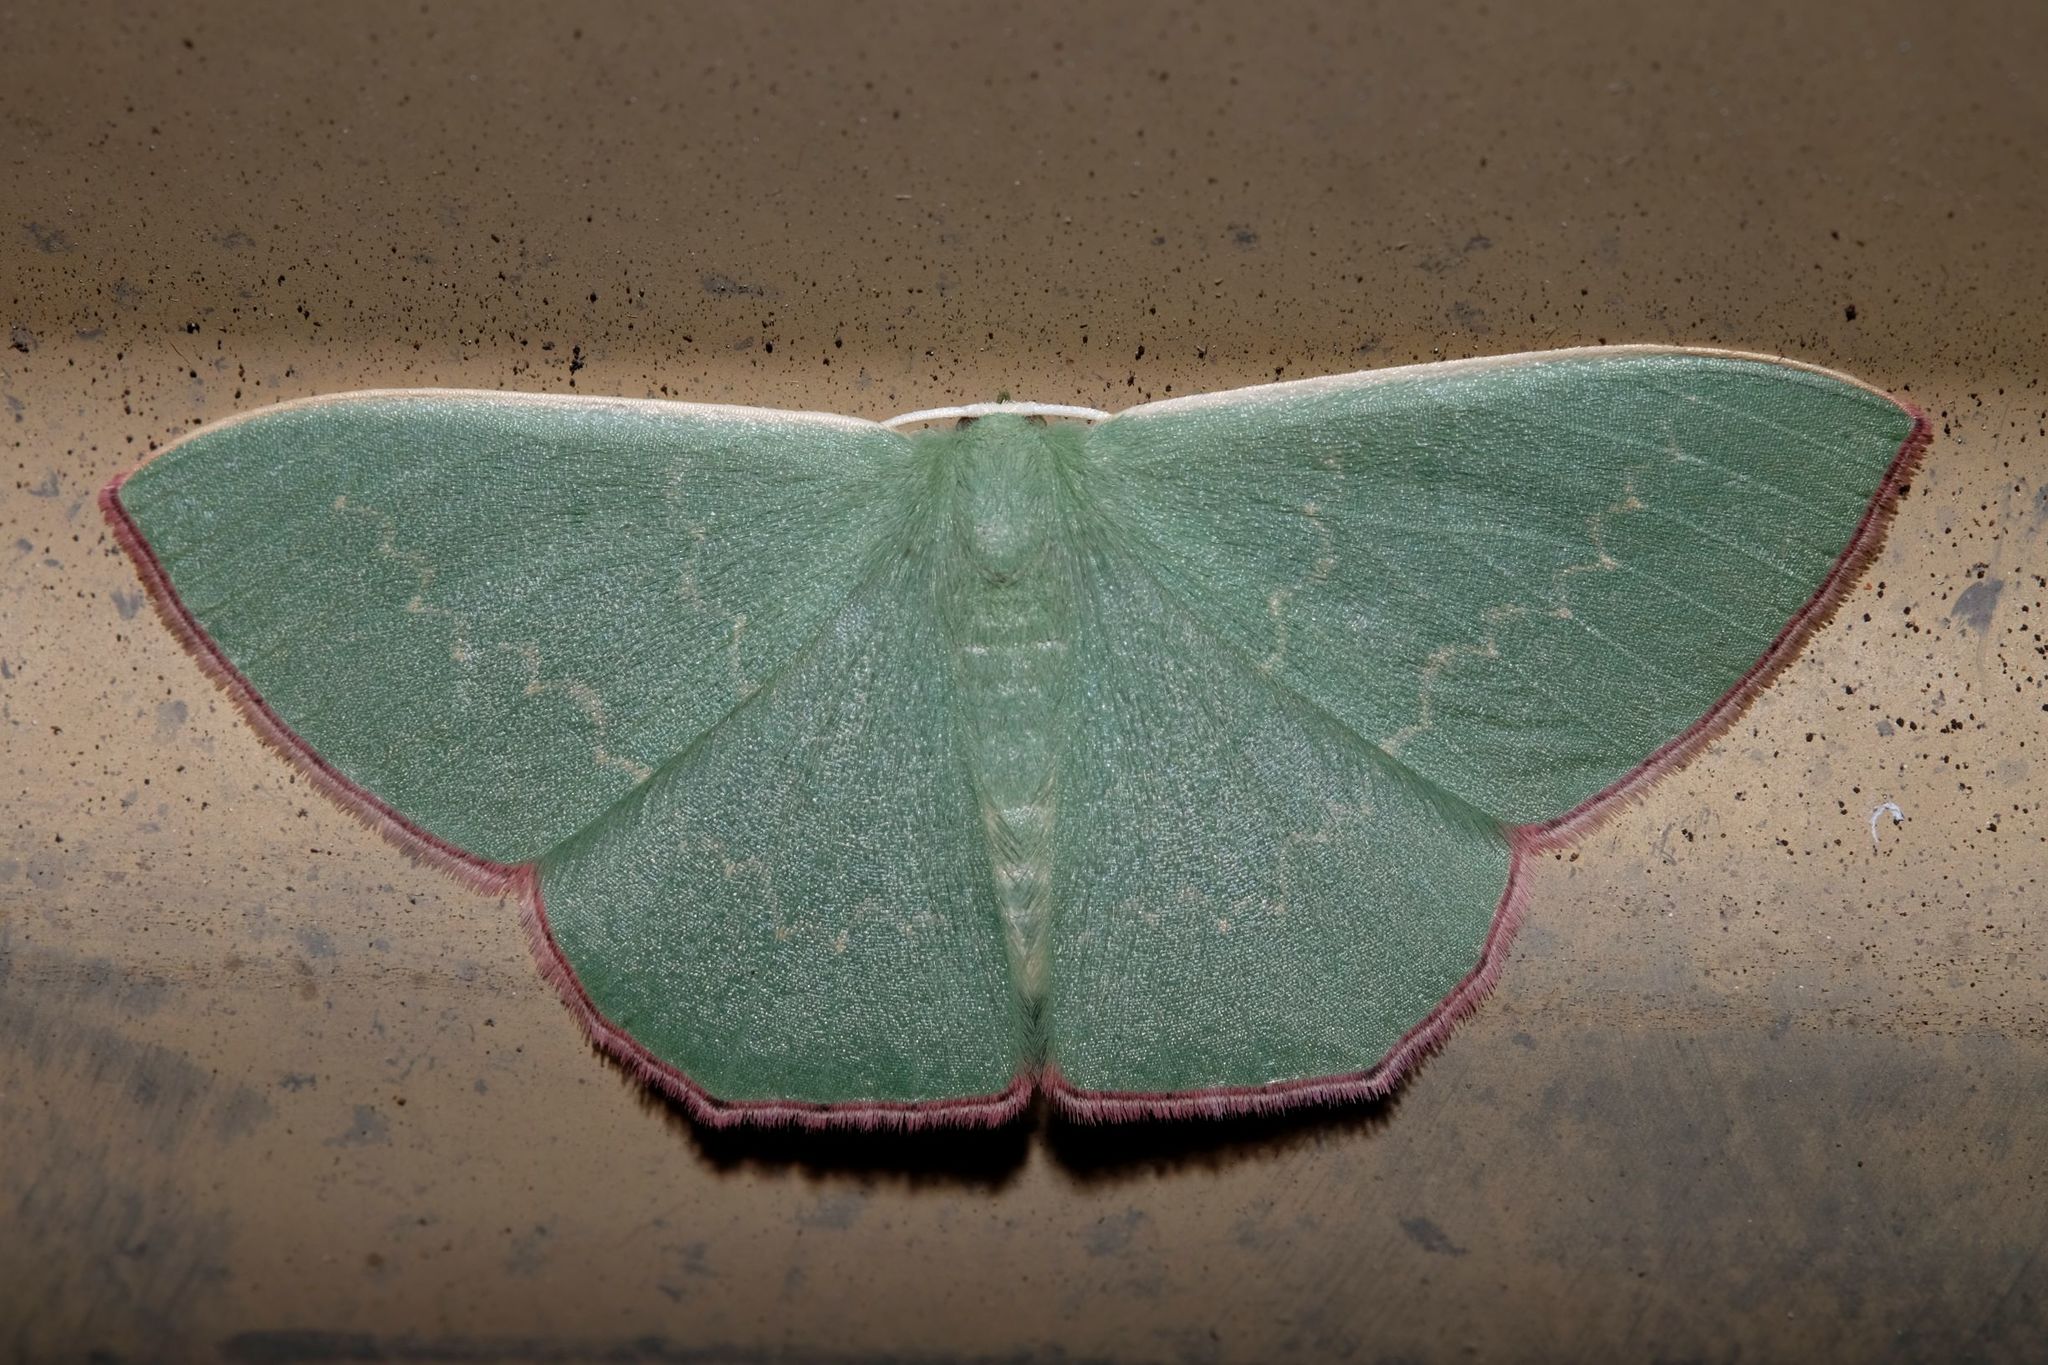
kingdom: Animalia
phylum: Arthropoda
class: Insecta
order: Lepidoptera
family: Geometridae
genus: Prasinocyma
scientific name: Prasinocyma semicrocea
